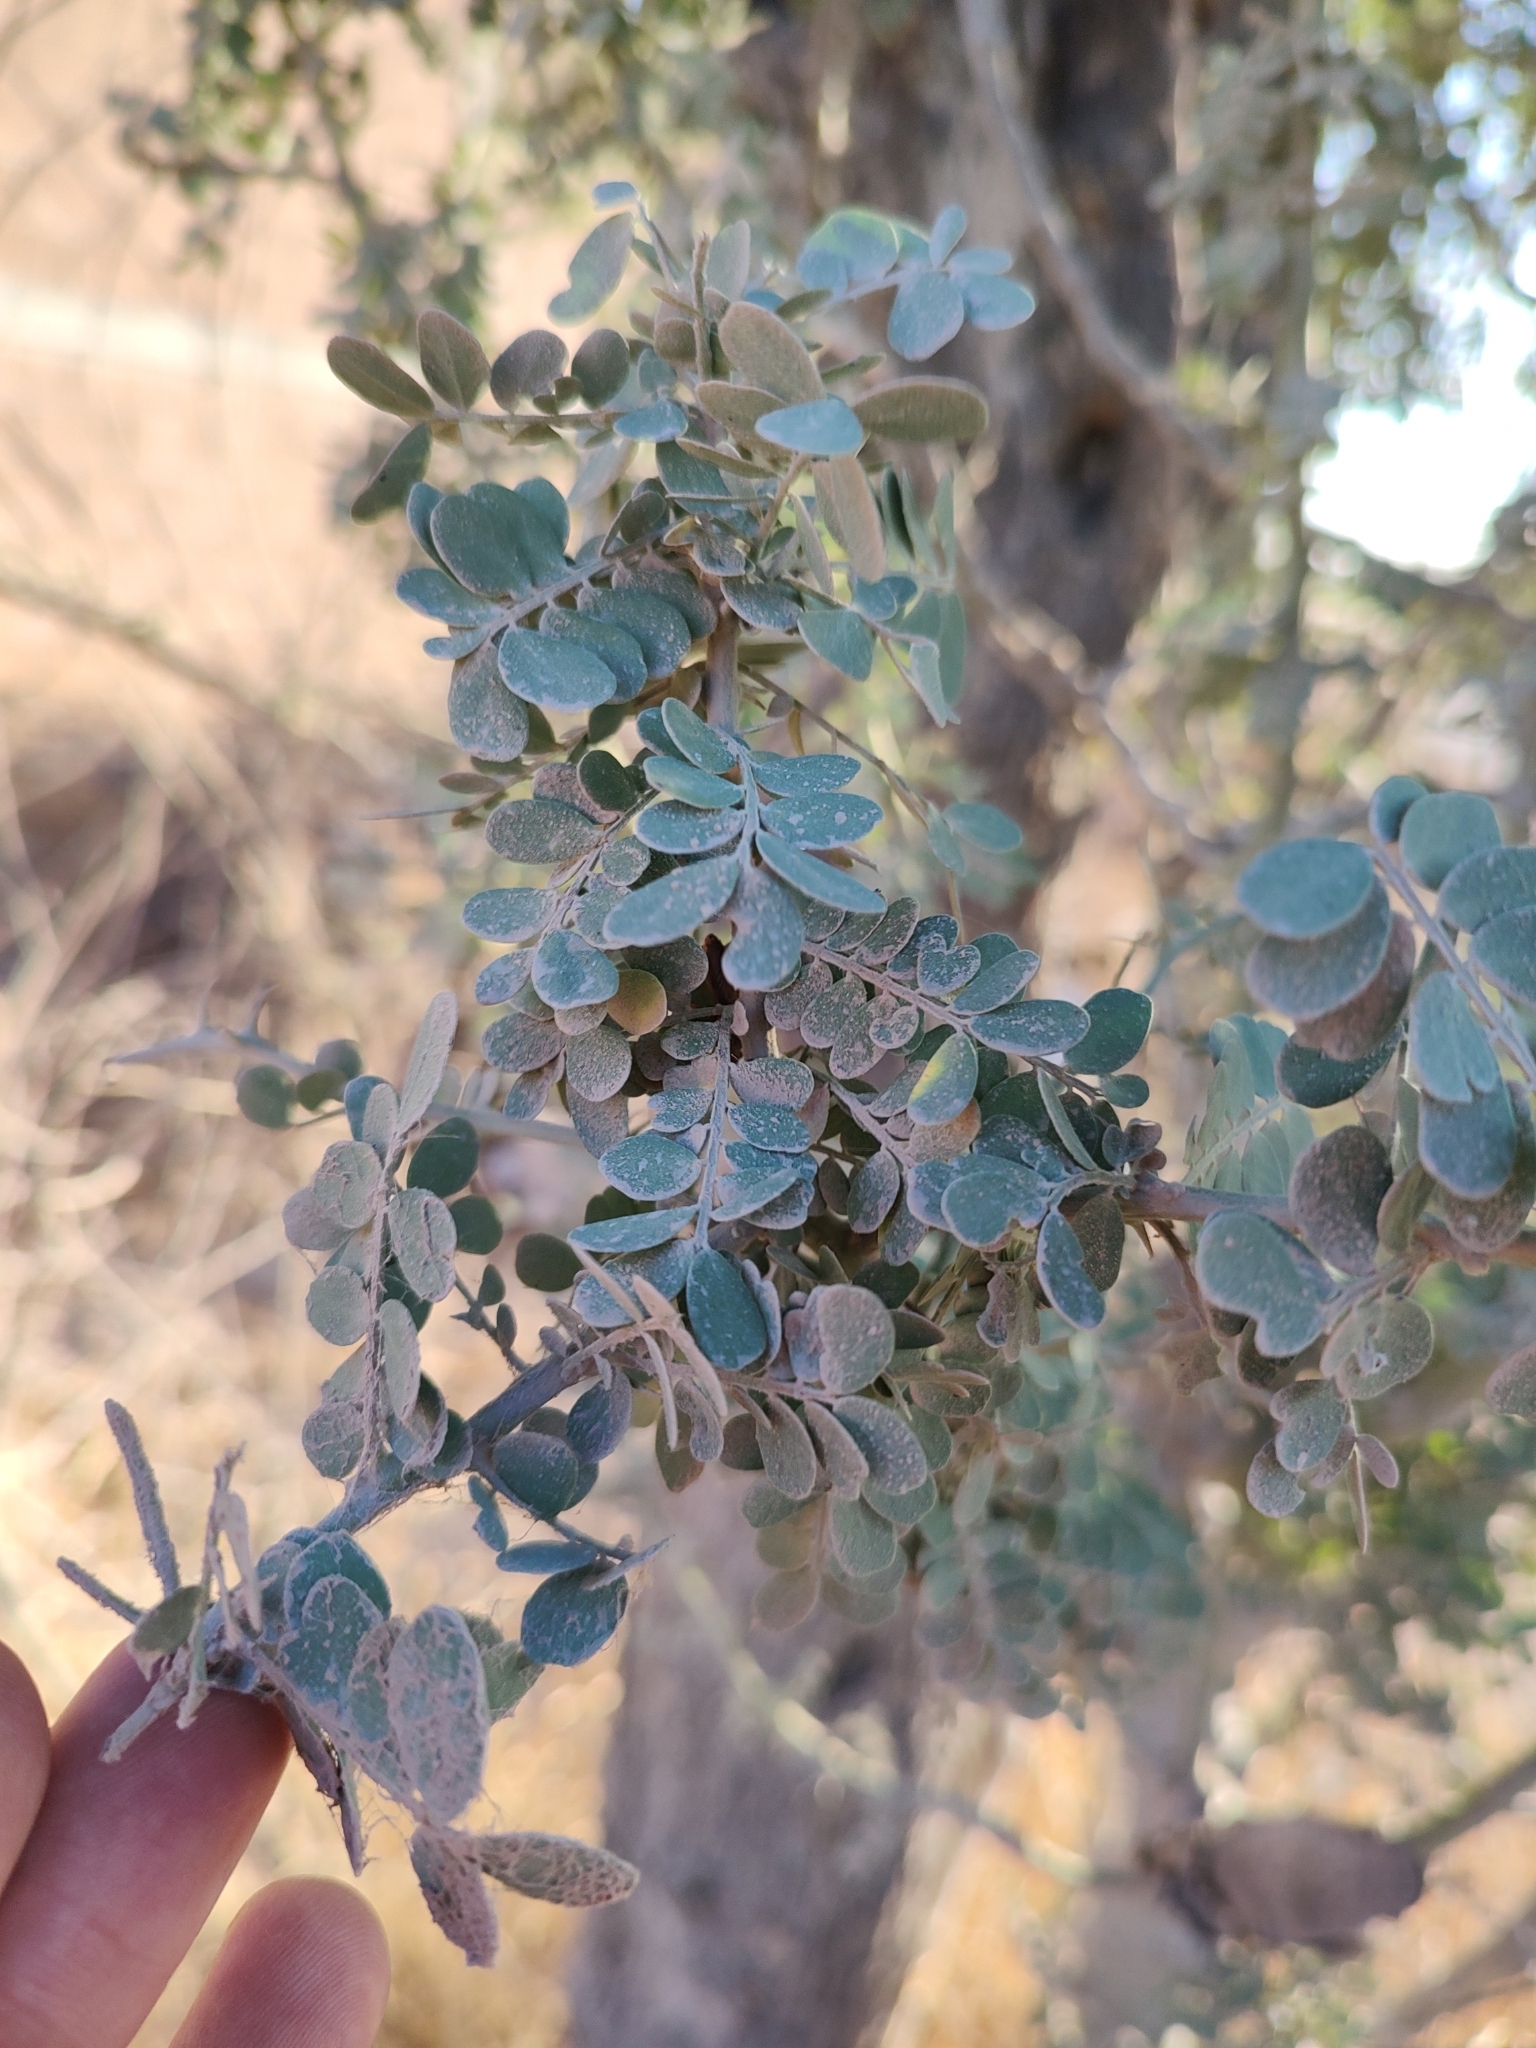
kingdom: Plantae
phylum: Tracheophyta
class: Magnoliopsida
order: Fabales
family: Fabaceae
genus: Olneya
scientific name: Olneya tesota
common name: Desert ironwood
